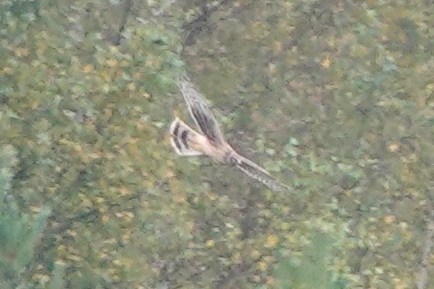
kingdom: Animalia
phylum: Chordata
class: Aves
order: Accipitriformes
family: Accipitridae
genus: Circus
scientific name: Circus cyaneus
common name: Hen harrier
